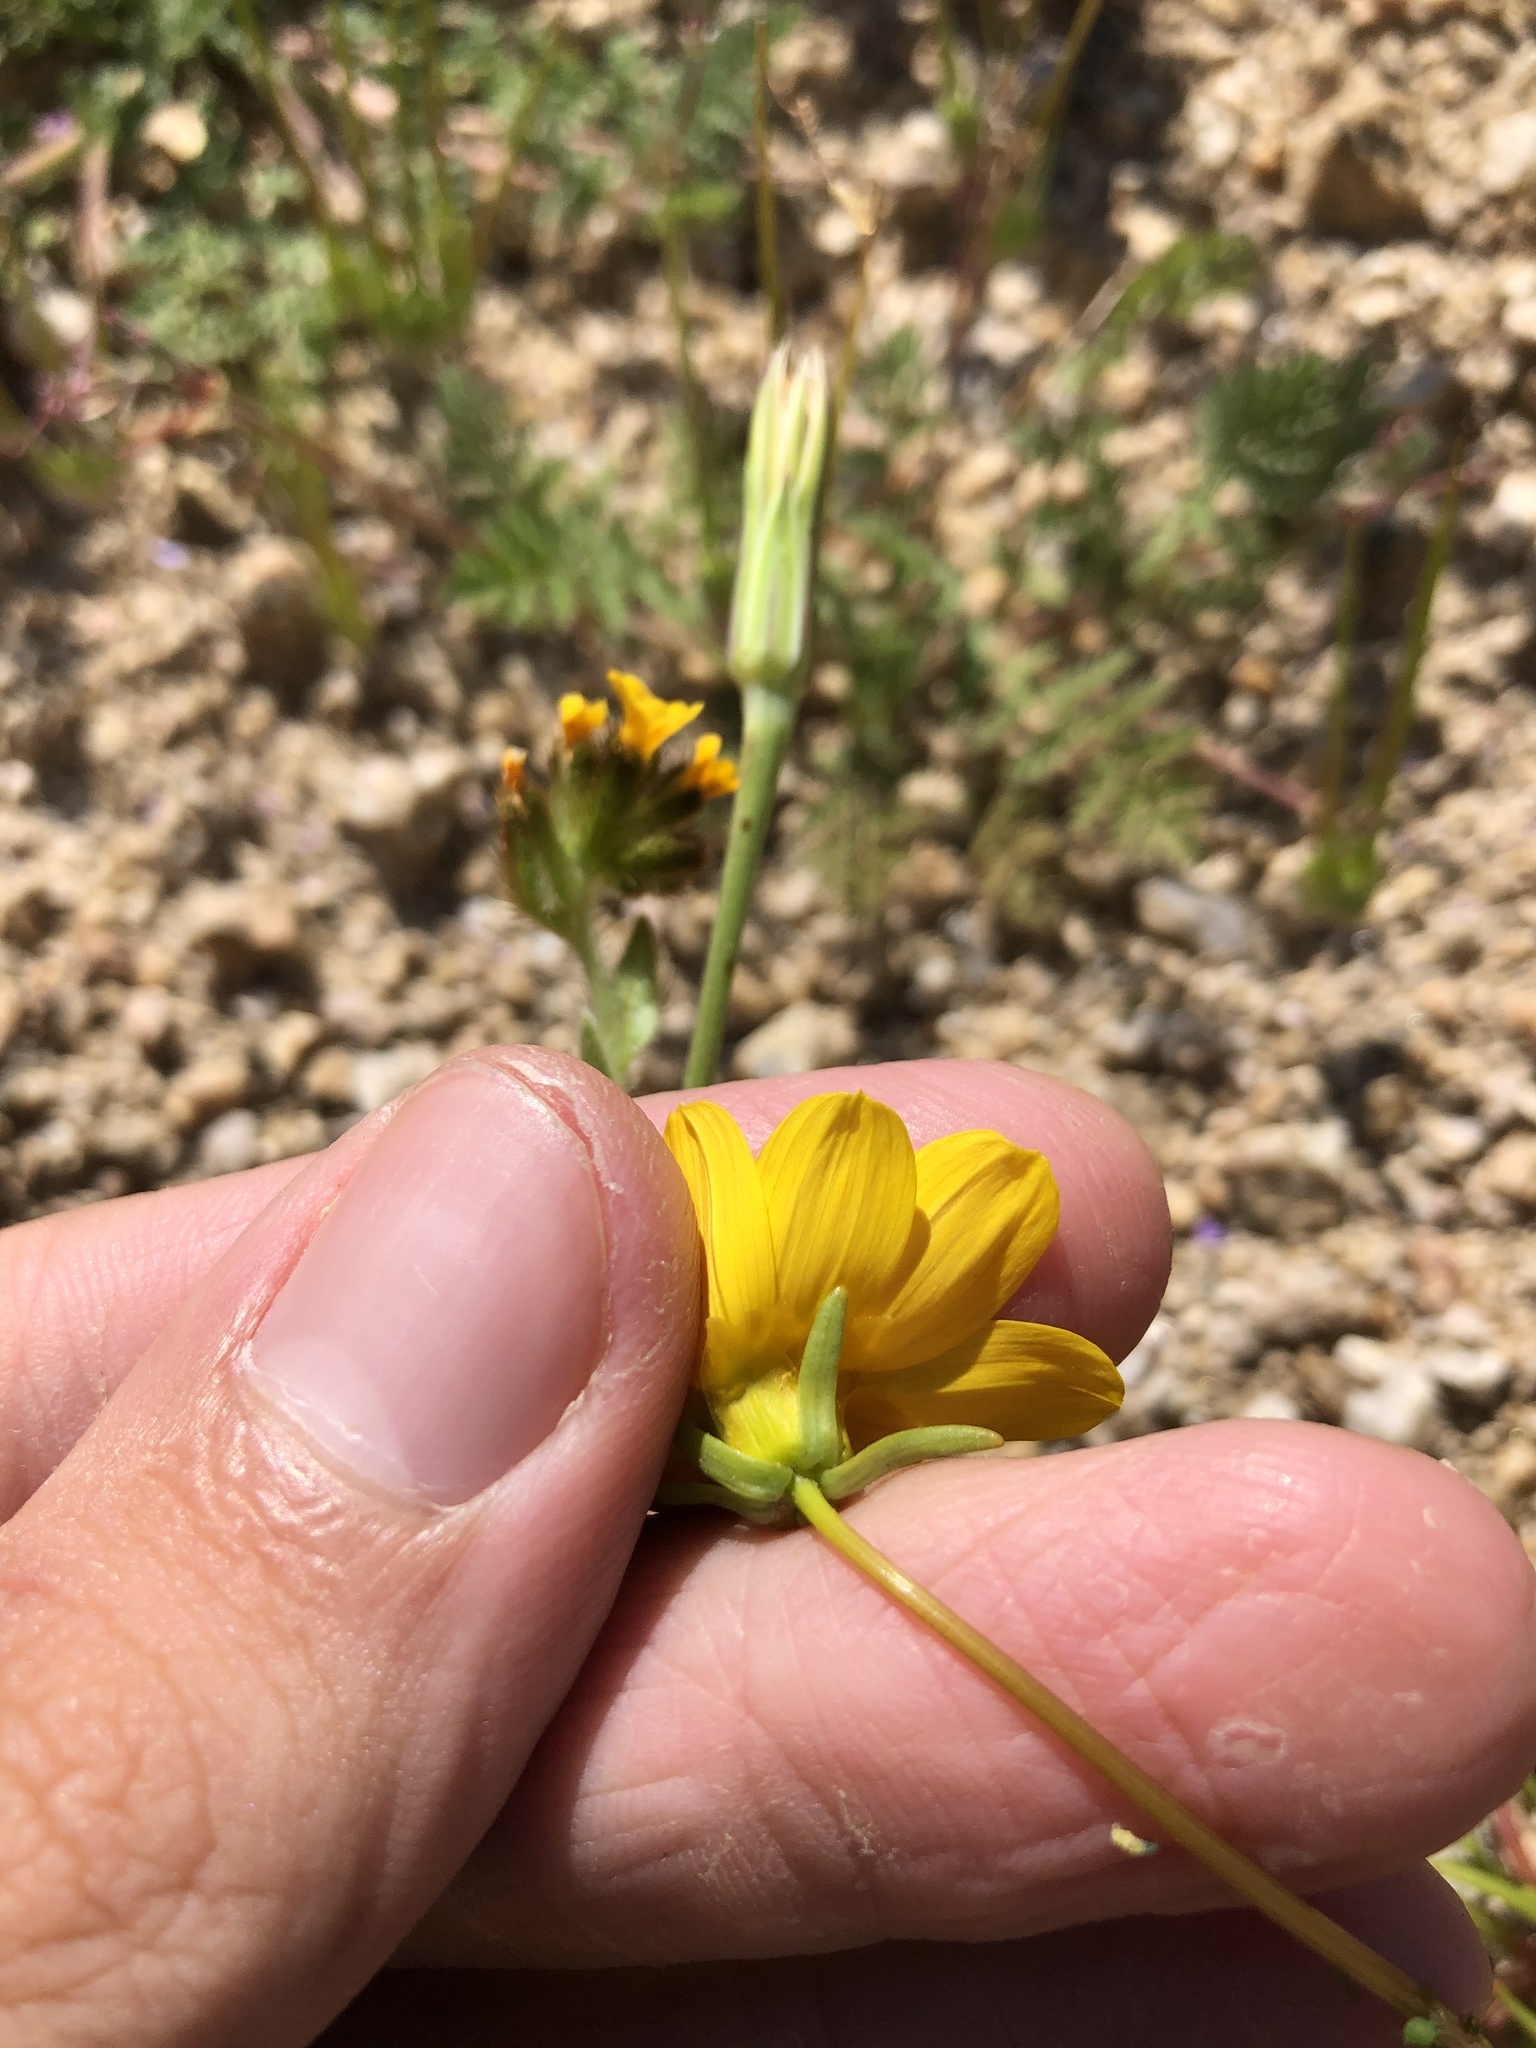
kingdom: Plantae
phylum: Tracheophyta
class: Magnoliopsida
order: Asterales
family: Asteraceae
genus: Coreopsis
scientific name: Coreopsis bigelovii
